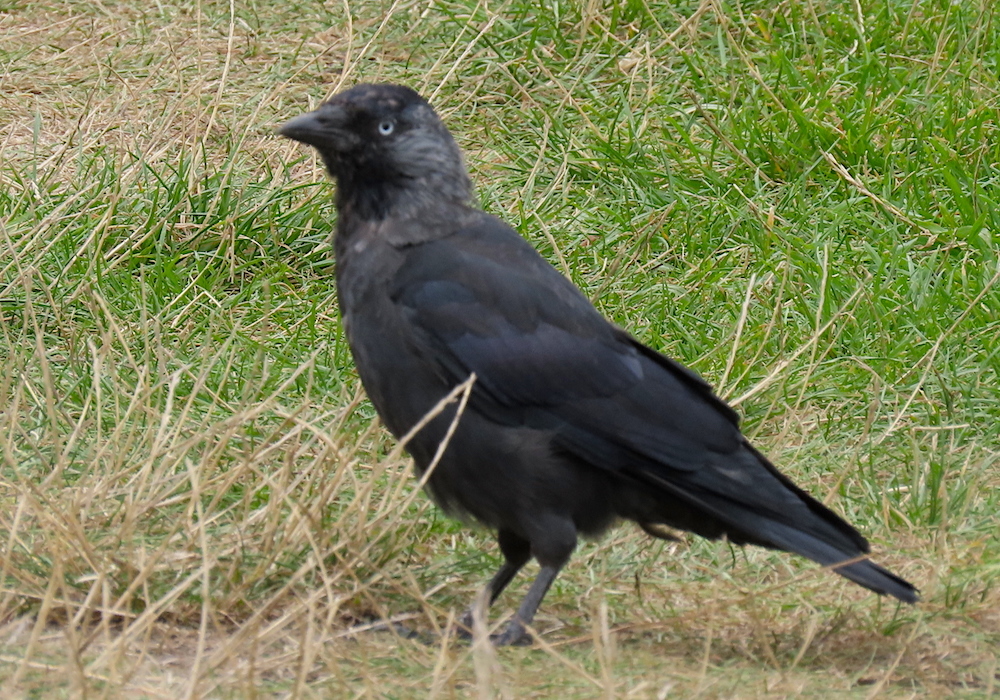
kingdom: Animalia
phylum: Chordata
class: Aves
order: Passeriformes
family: Corvidae
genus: Coloeus
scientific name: Coloeus monedula
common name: Western jackdaw
